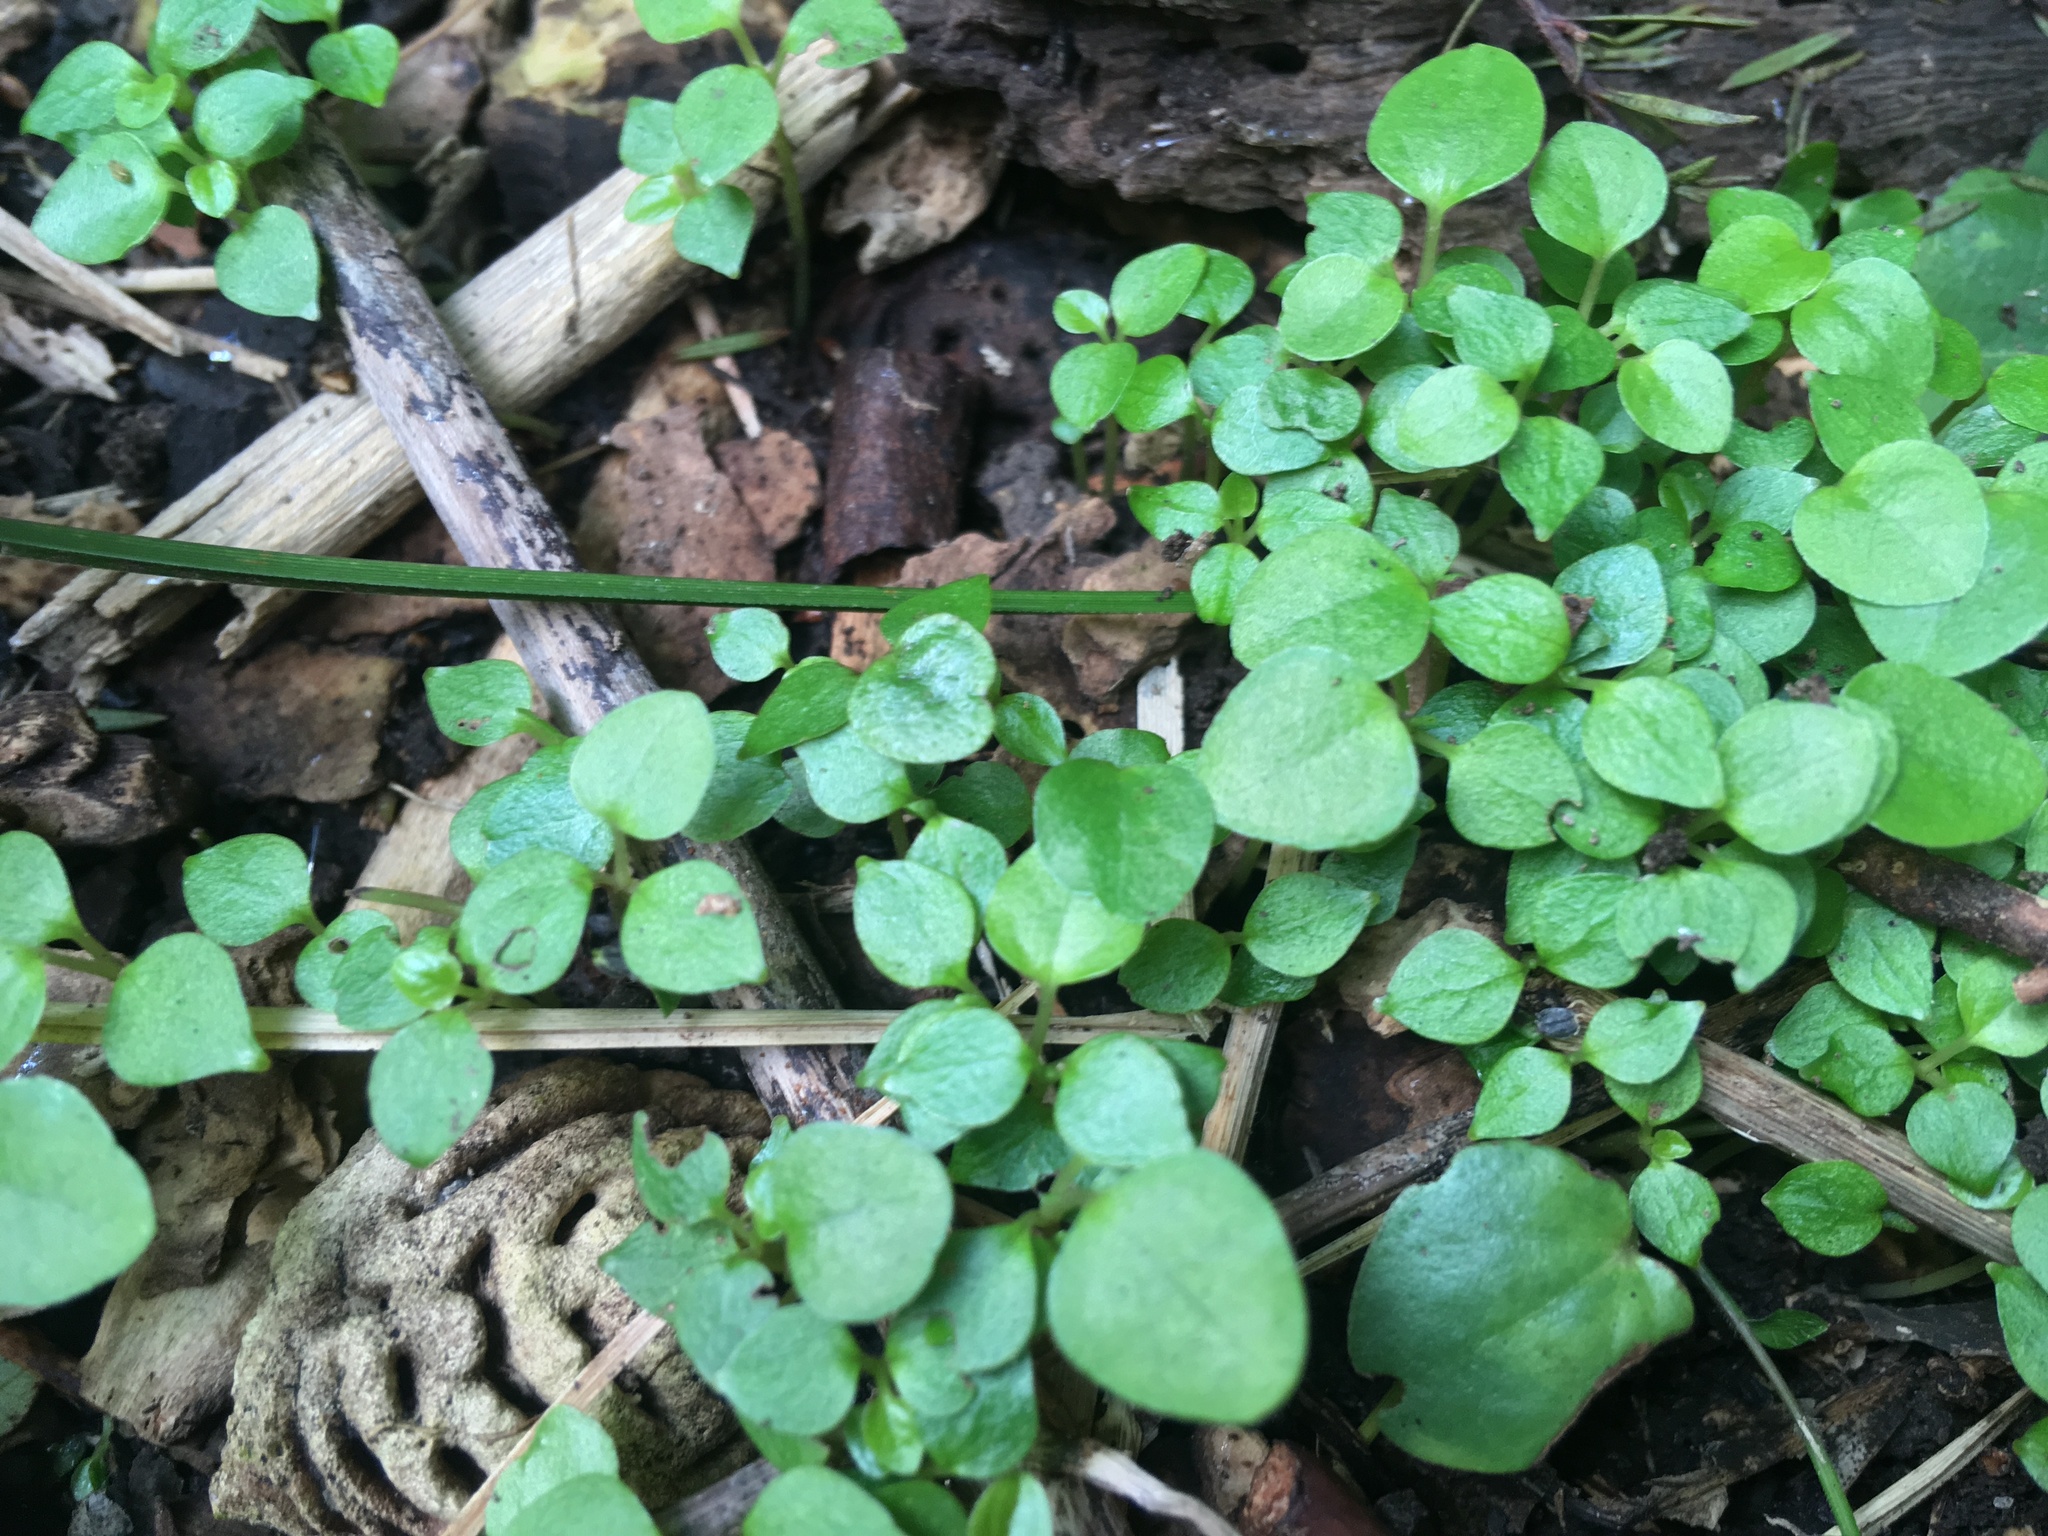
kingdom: Plantae
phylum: Tracheophyta
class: Magnoliopsida
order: Piperales
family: Piperaceae
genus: Macropiper
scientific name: Macropiper excelsum
